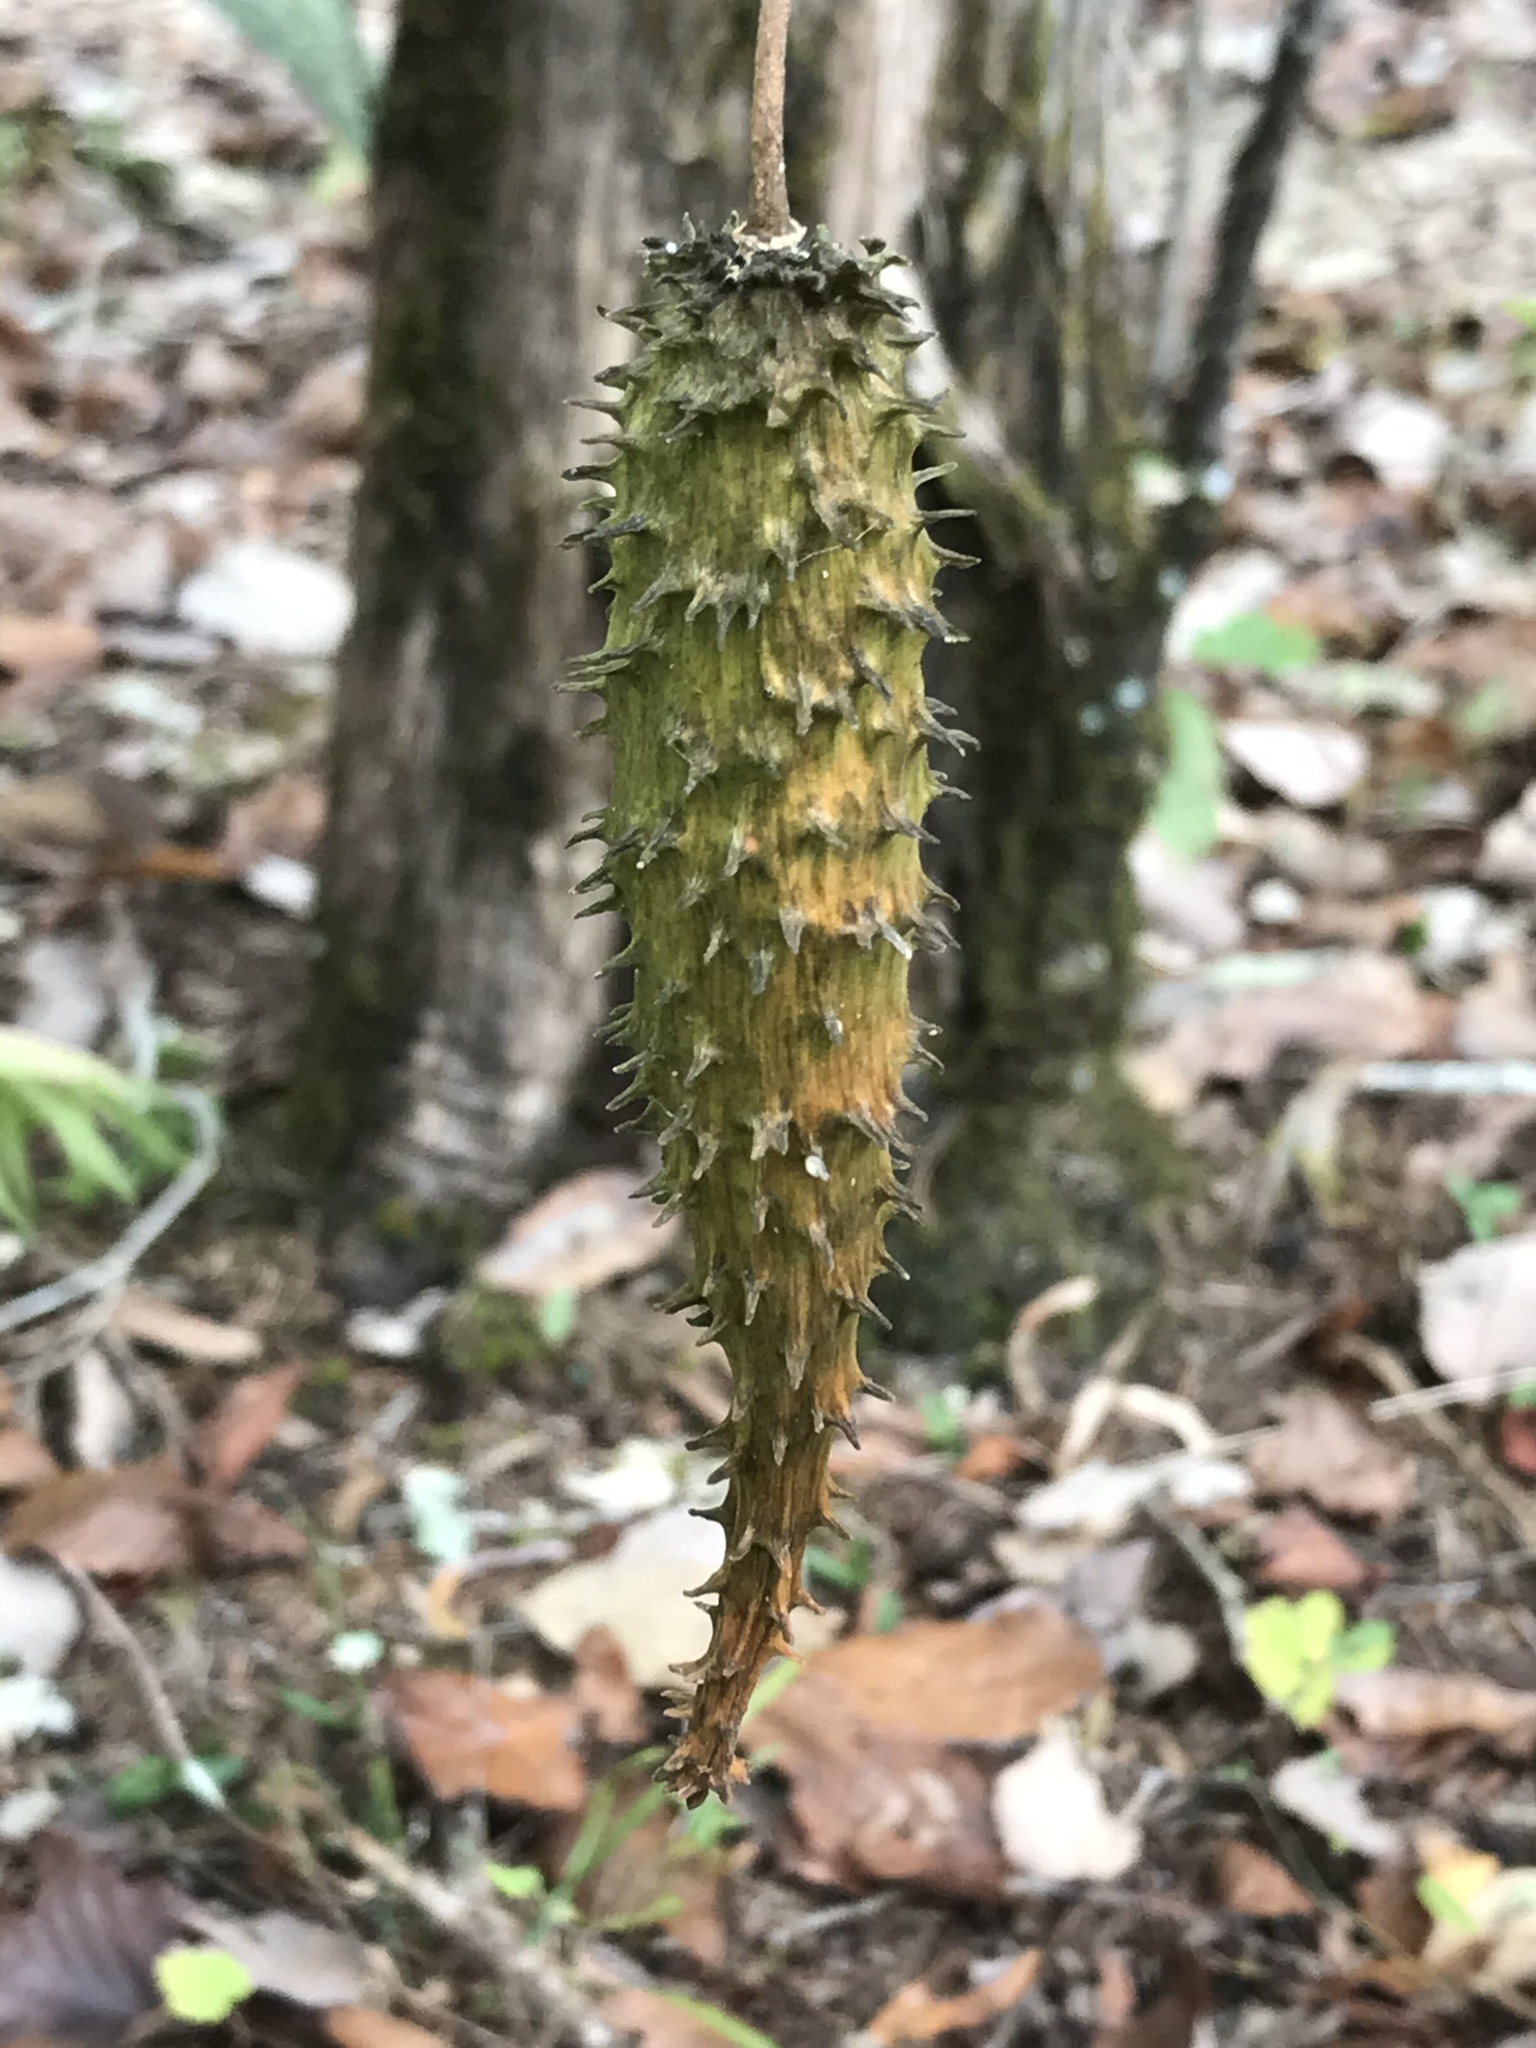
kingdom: Plantae
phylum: Tracheophyta
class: Magnoliopsida
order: Gentianales
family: Apocynaceae
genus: Matelea
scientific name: Matelea obliqua
